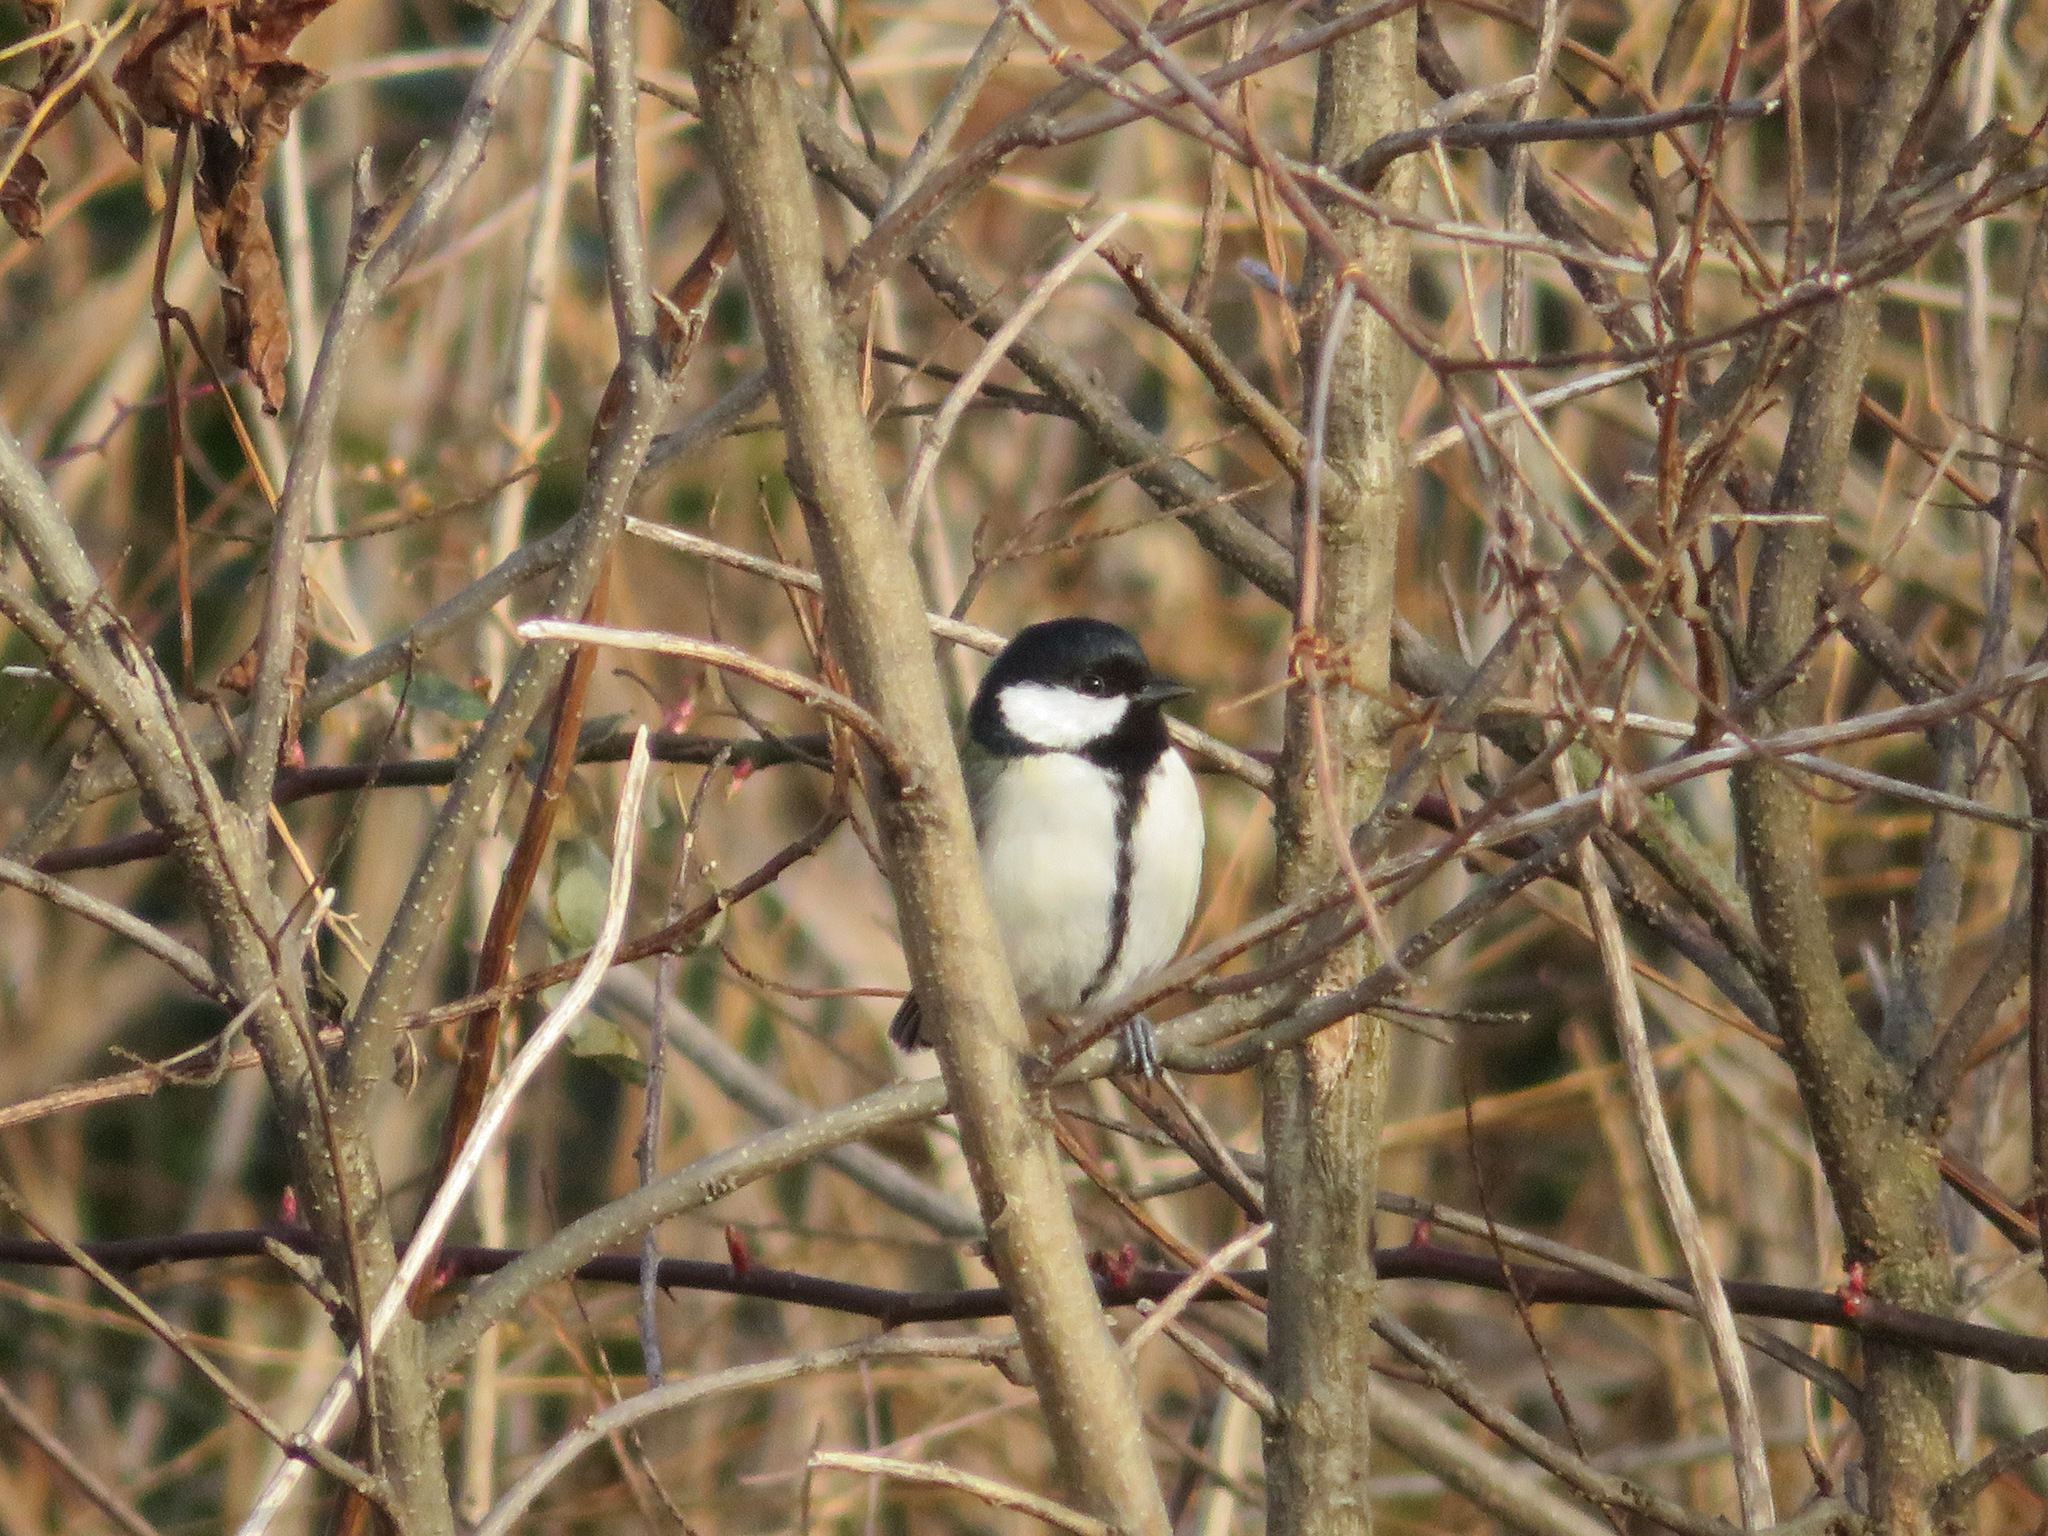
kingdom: Animalia
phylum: Chordata
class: Aves
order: Passeriformes
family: Paridae
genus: Parus
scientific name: Parus minor
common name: Japanese tit
